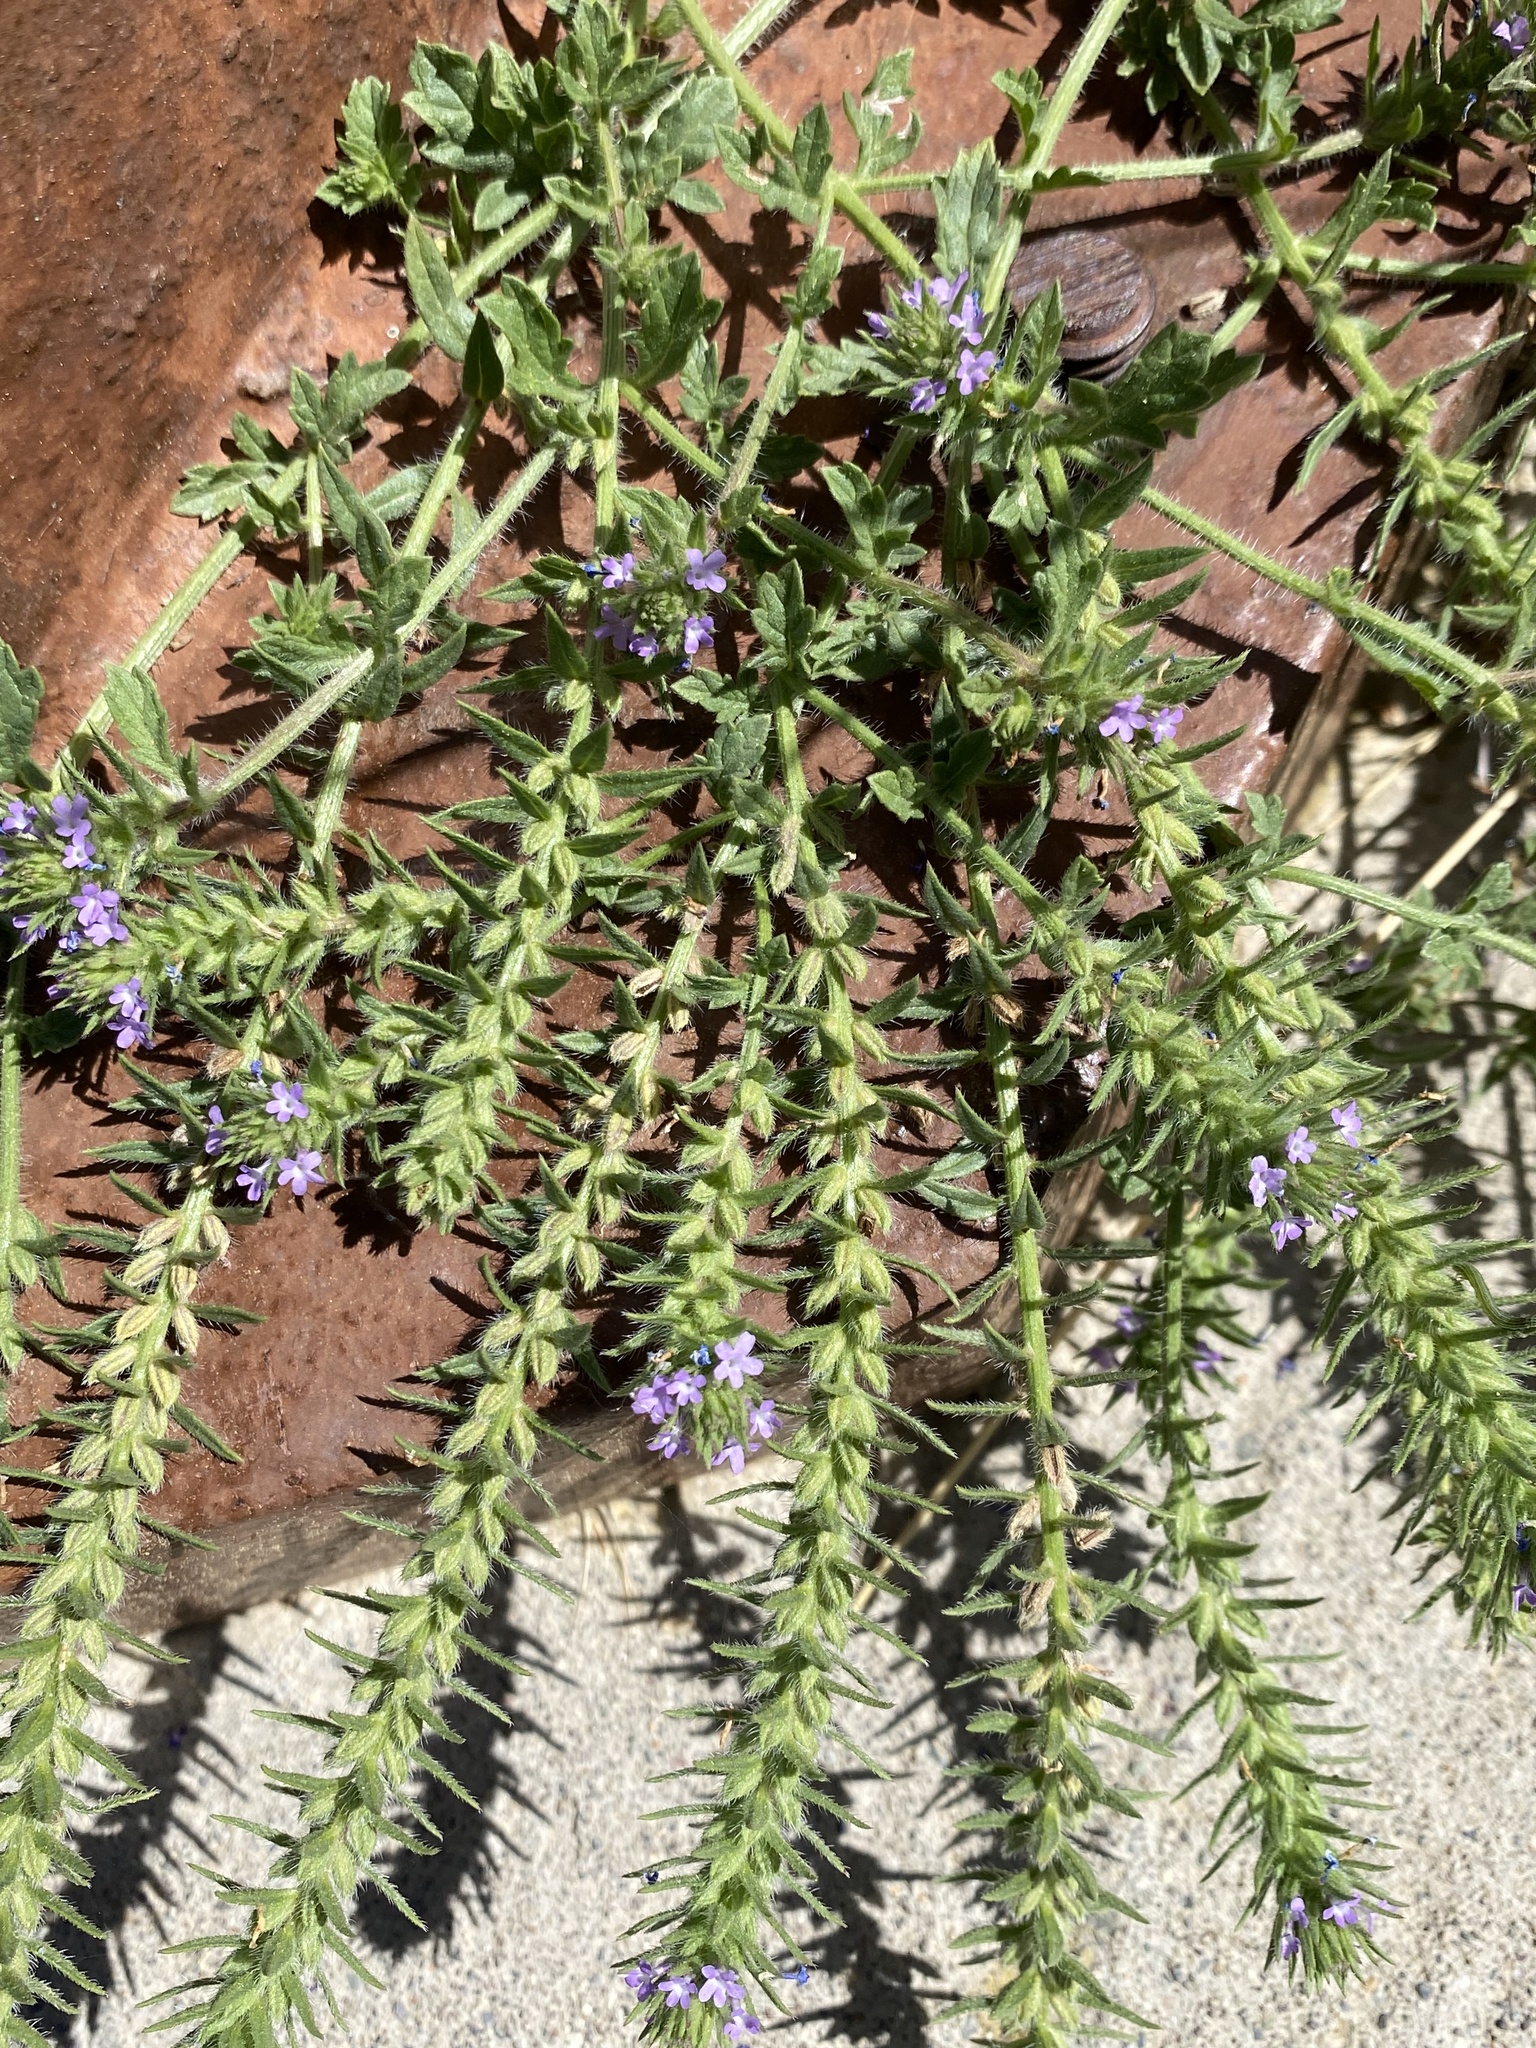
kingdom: Plantae
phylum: Tracheophyta
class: Magnoliopsida
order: Lamiales
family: Verbenaceae
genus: Verbena
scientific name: Verbena bracteata
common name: Bracted vervain
